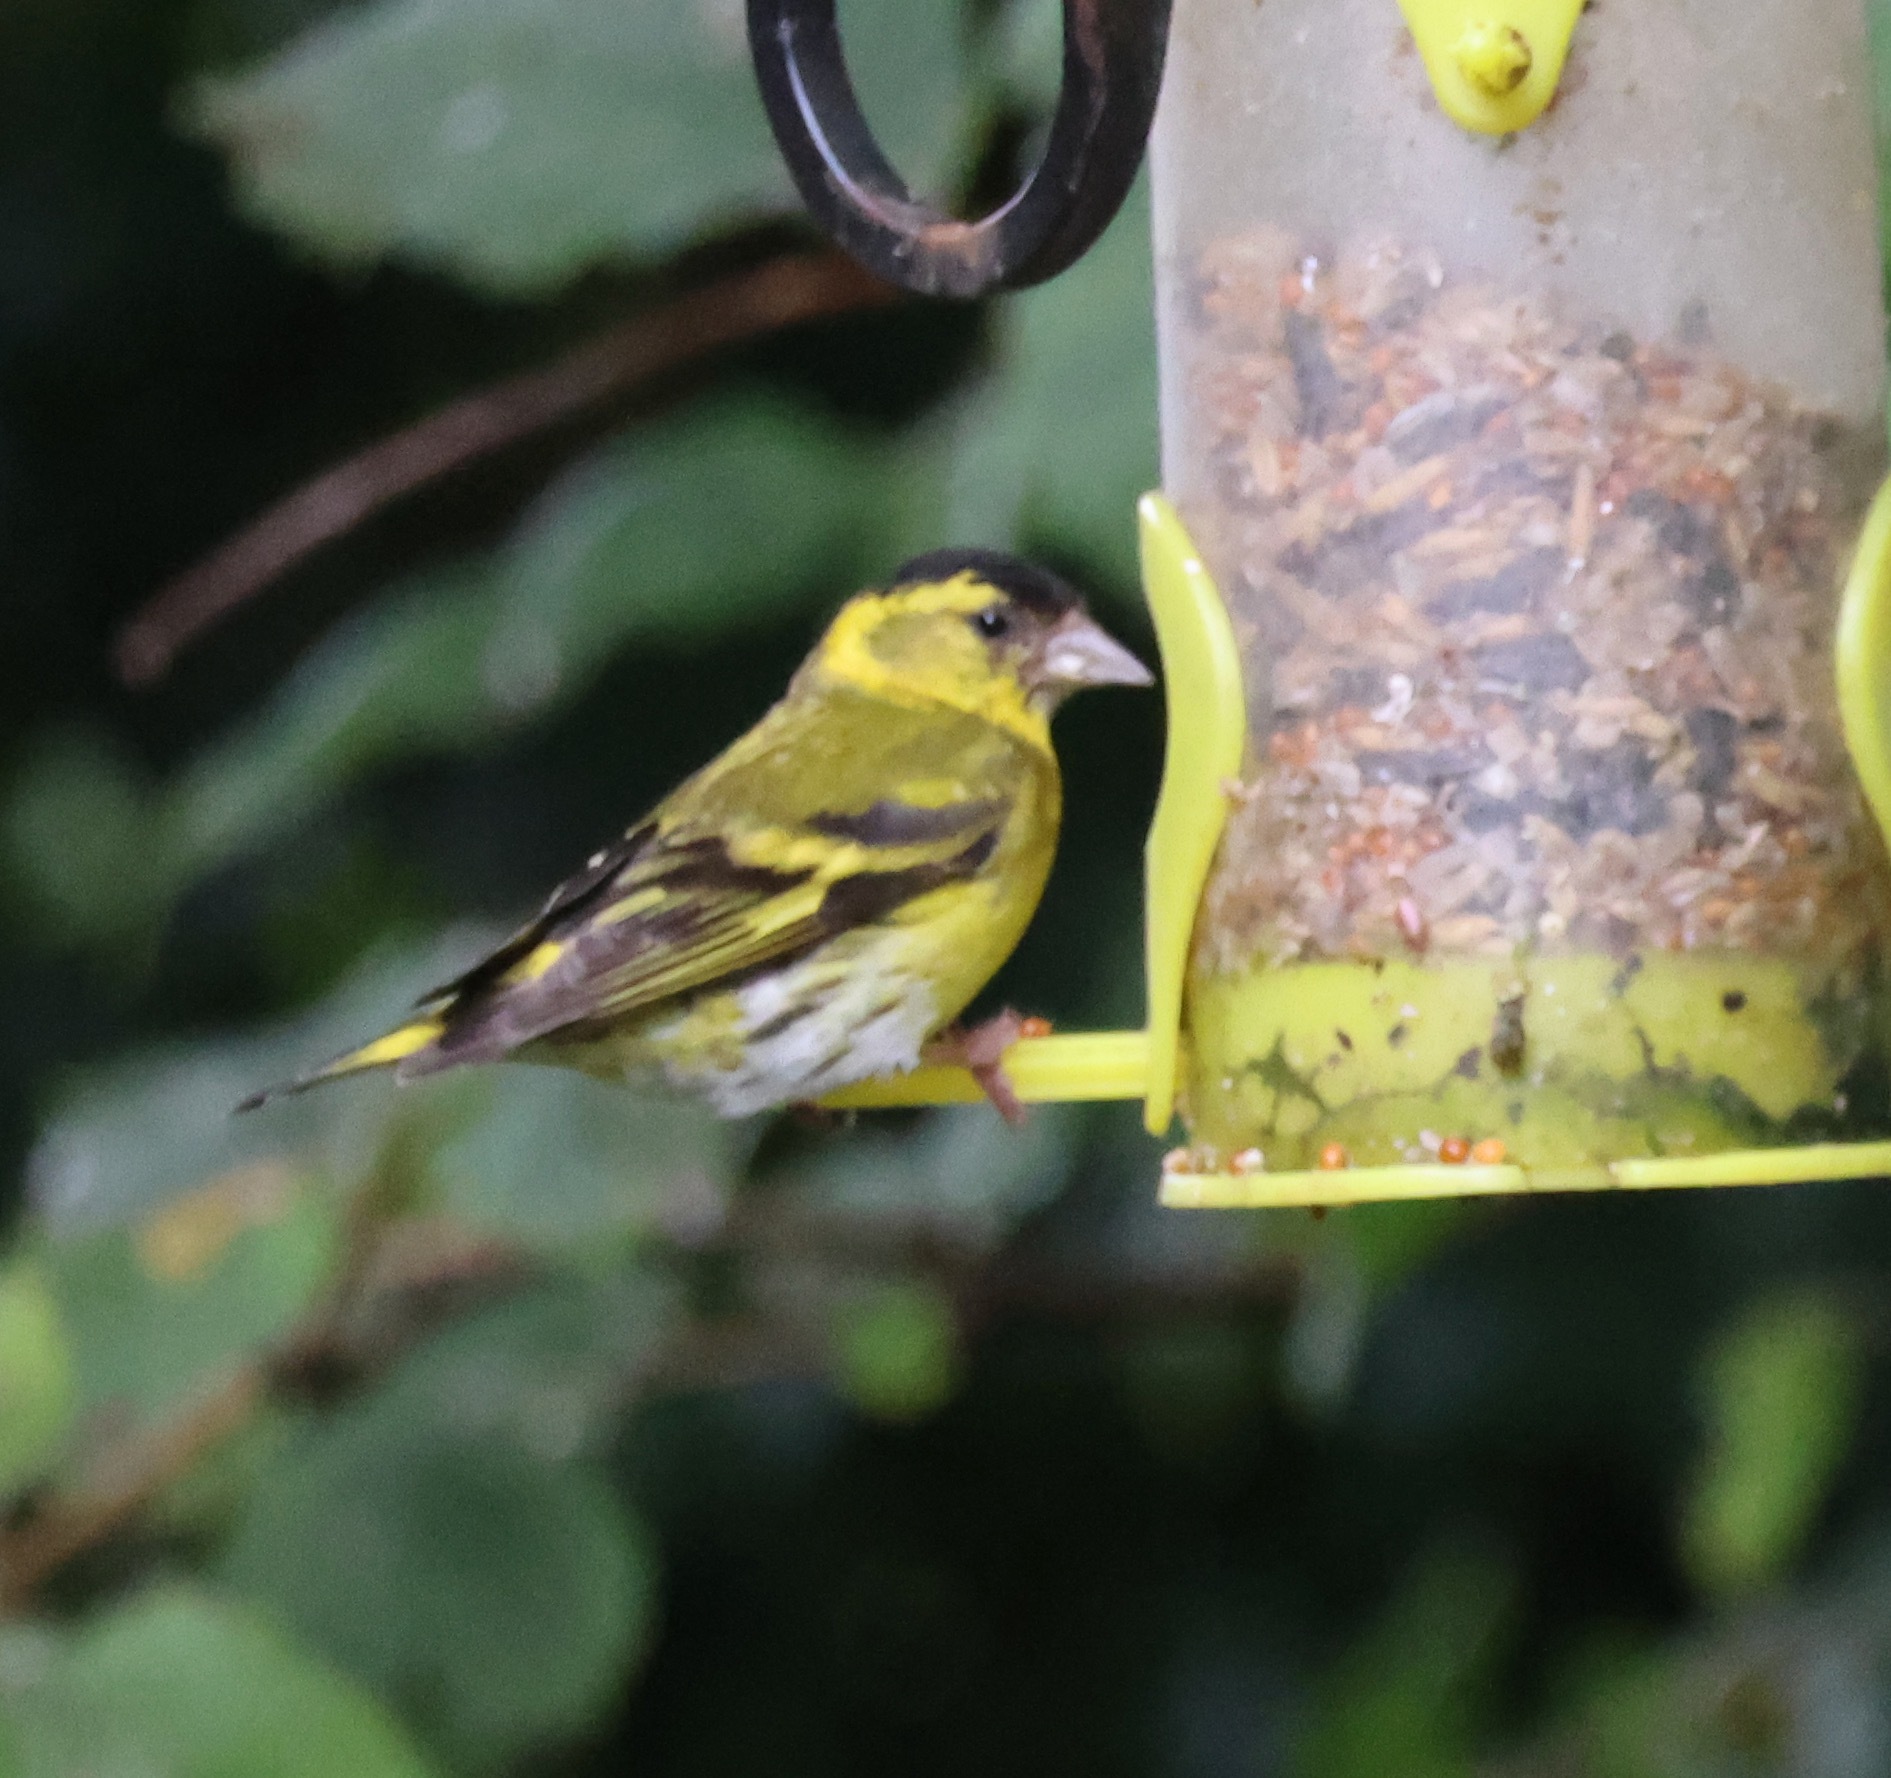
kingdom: Animalia
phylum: Chordata
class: Aves
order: Passeriformes
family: Fringillidae
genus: Spinus
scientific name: Spinus spinus
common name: Eurasian siskin
